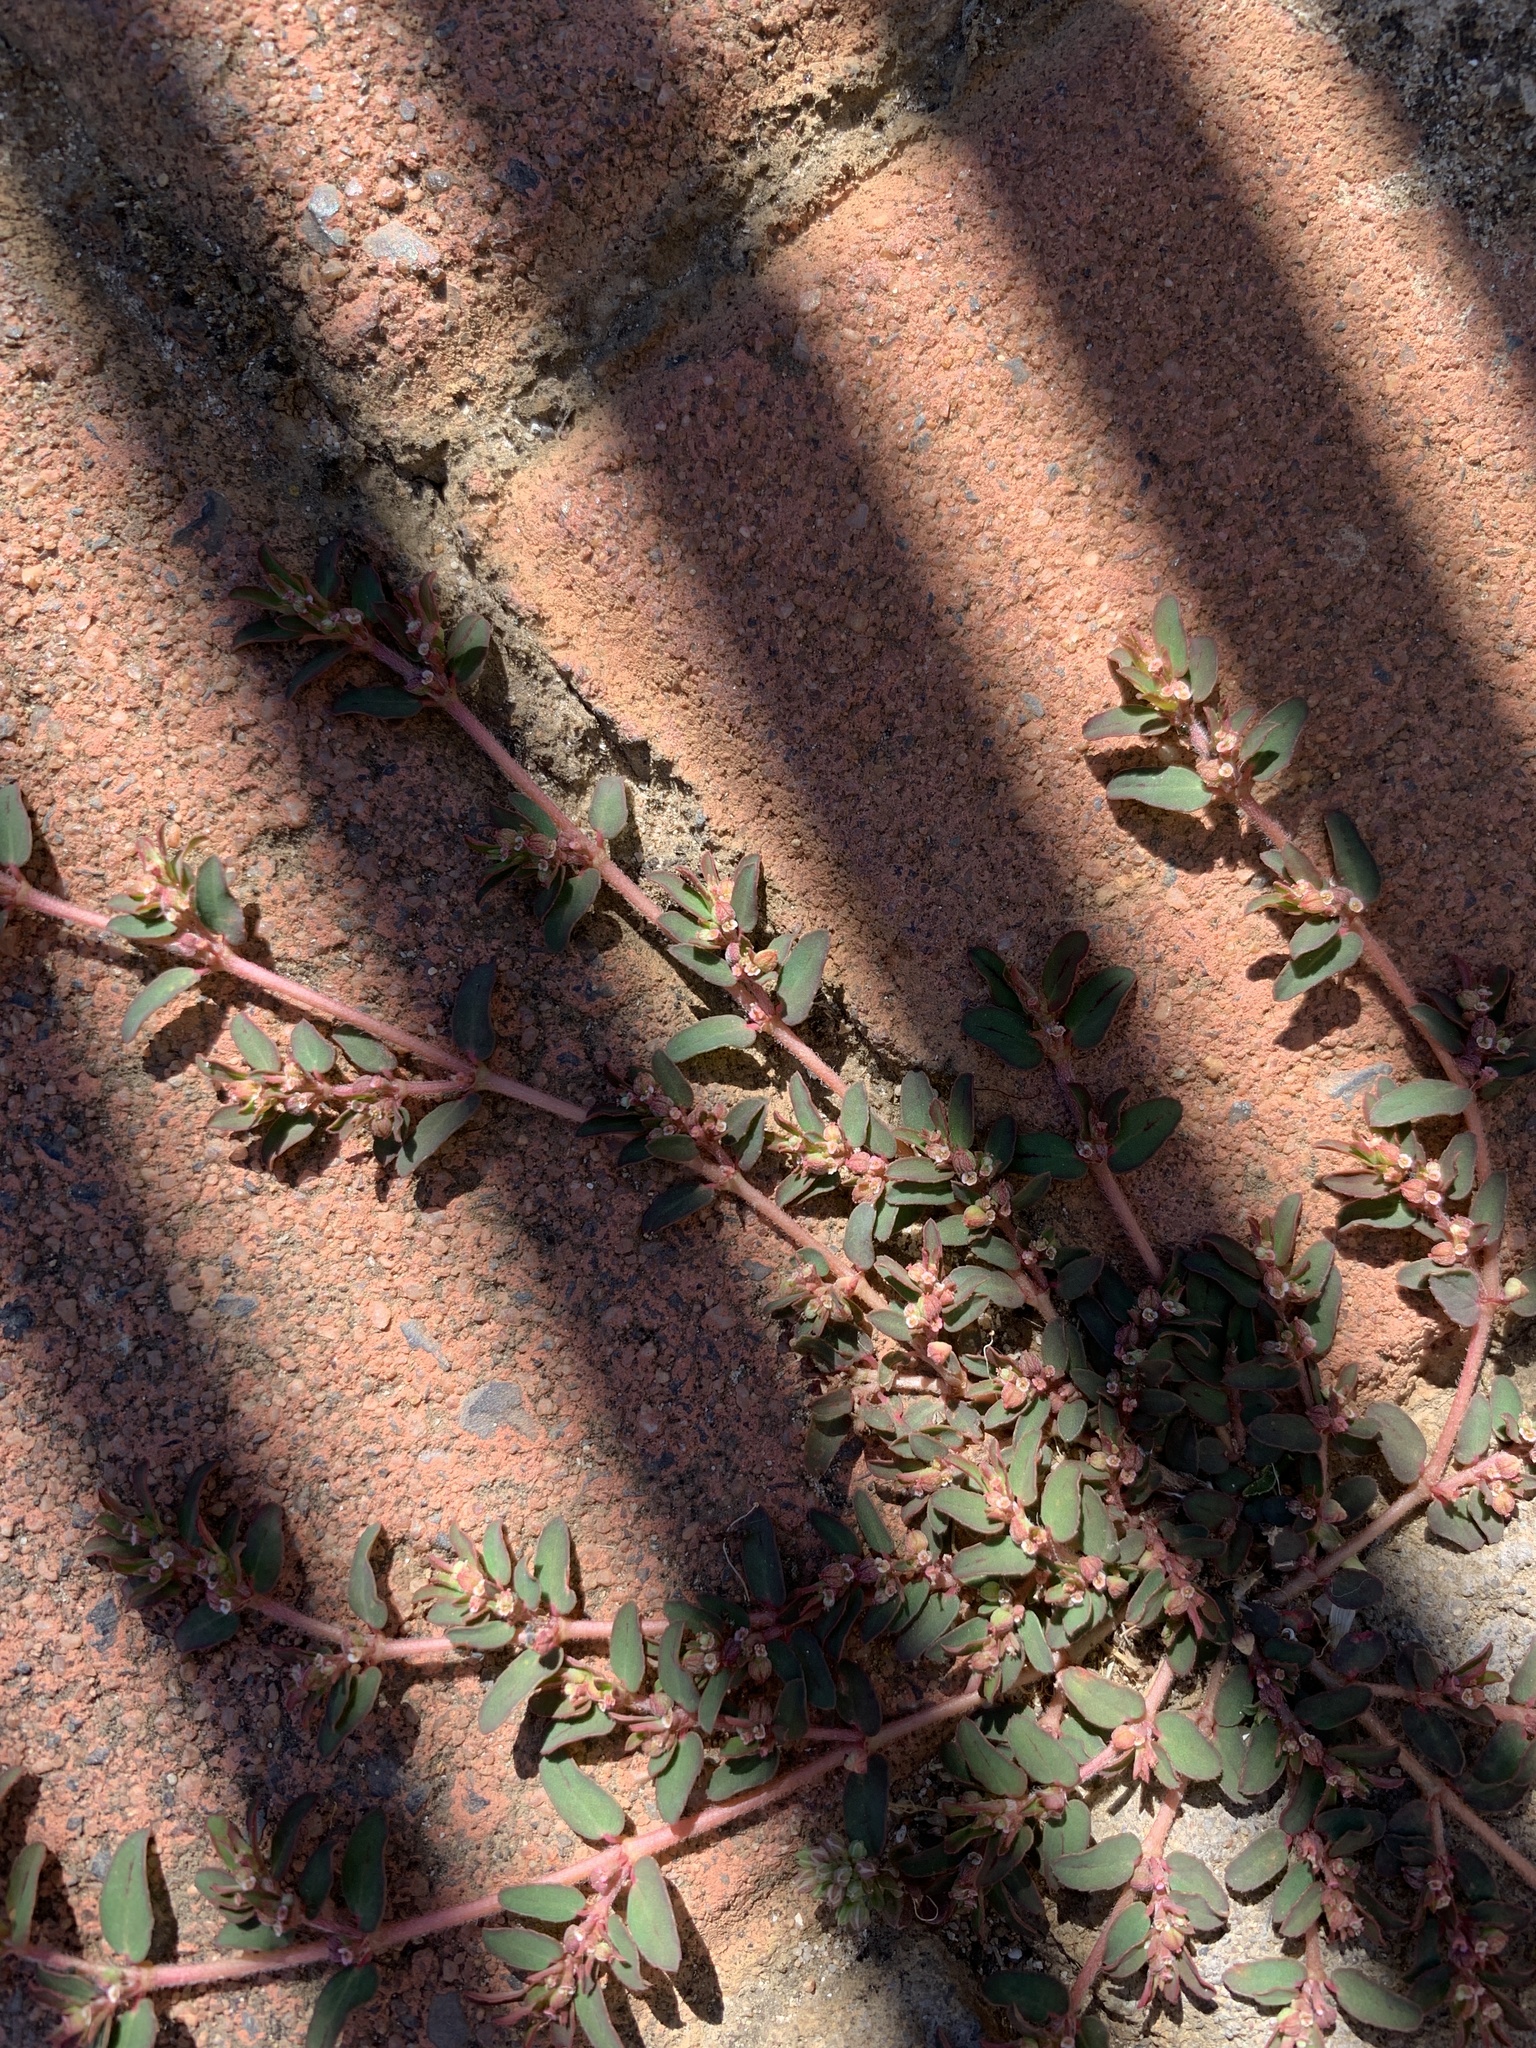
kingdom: Plantae
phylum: Tracheophyta
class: Magnoliopsida
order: Malpighiales
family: Euphorbiaceae
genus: Euphorbia
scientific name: Euphorbia maculata
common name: Spotted spurge
